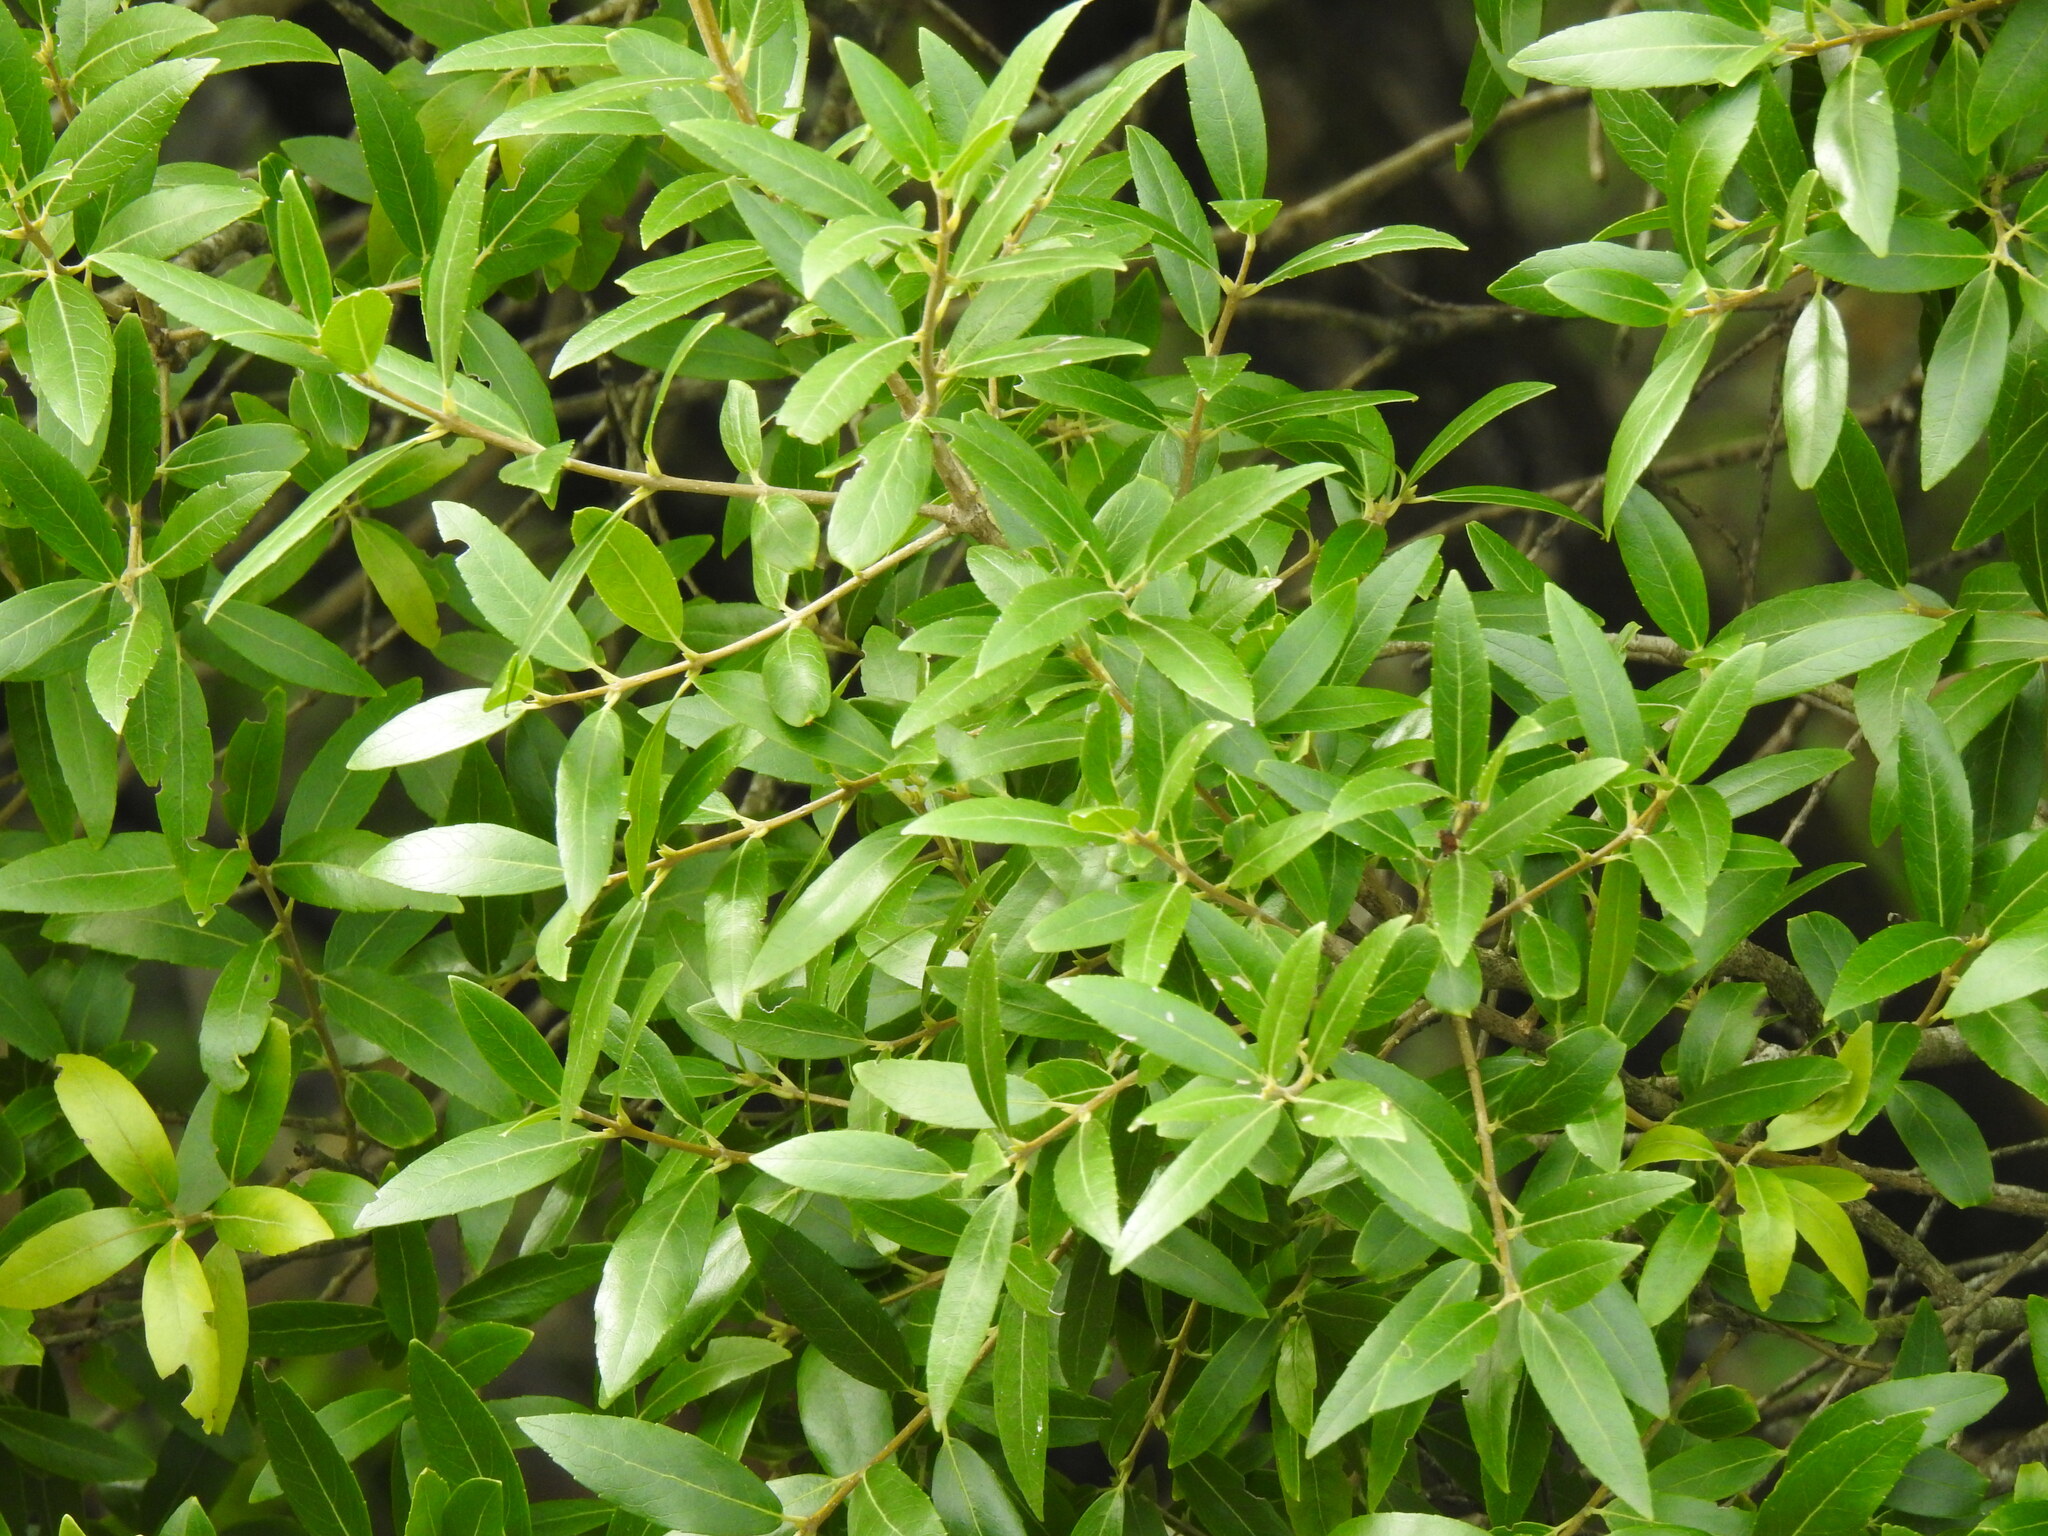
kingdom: Plantae
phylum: Tracheophyta
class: Magnoliopsida
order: Lamiales
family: Oleaceae
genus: Phillyrea
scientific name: Phillyrea latifolia
